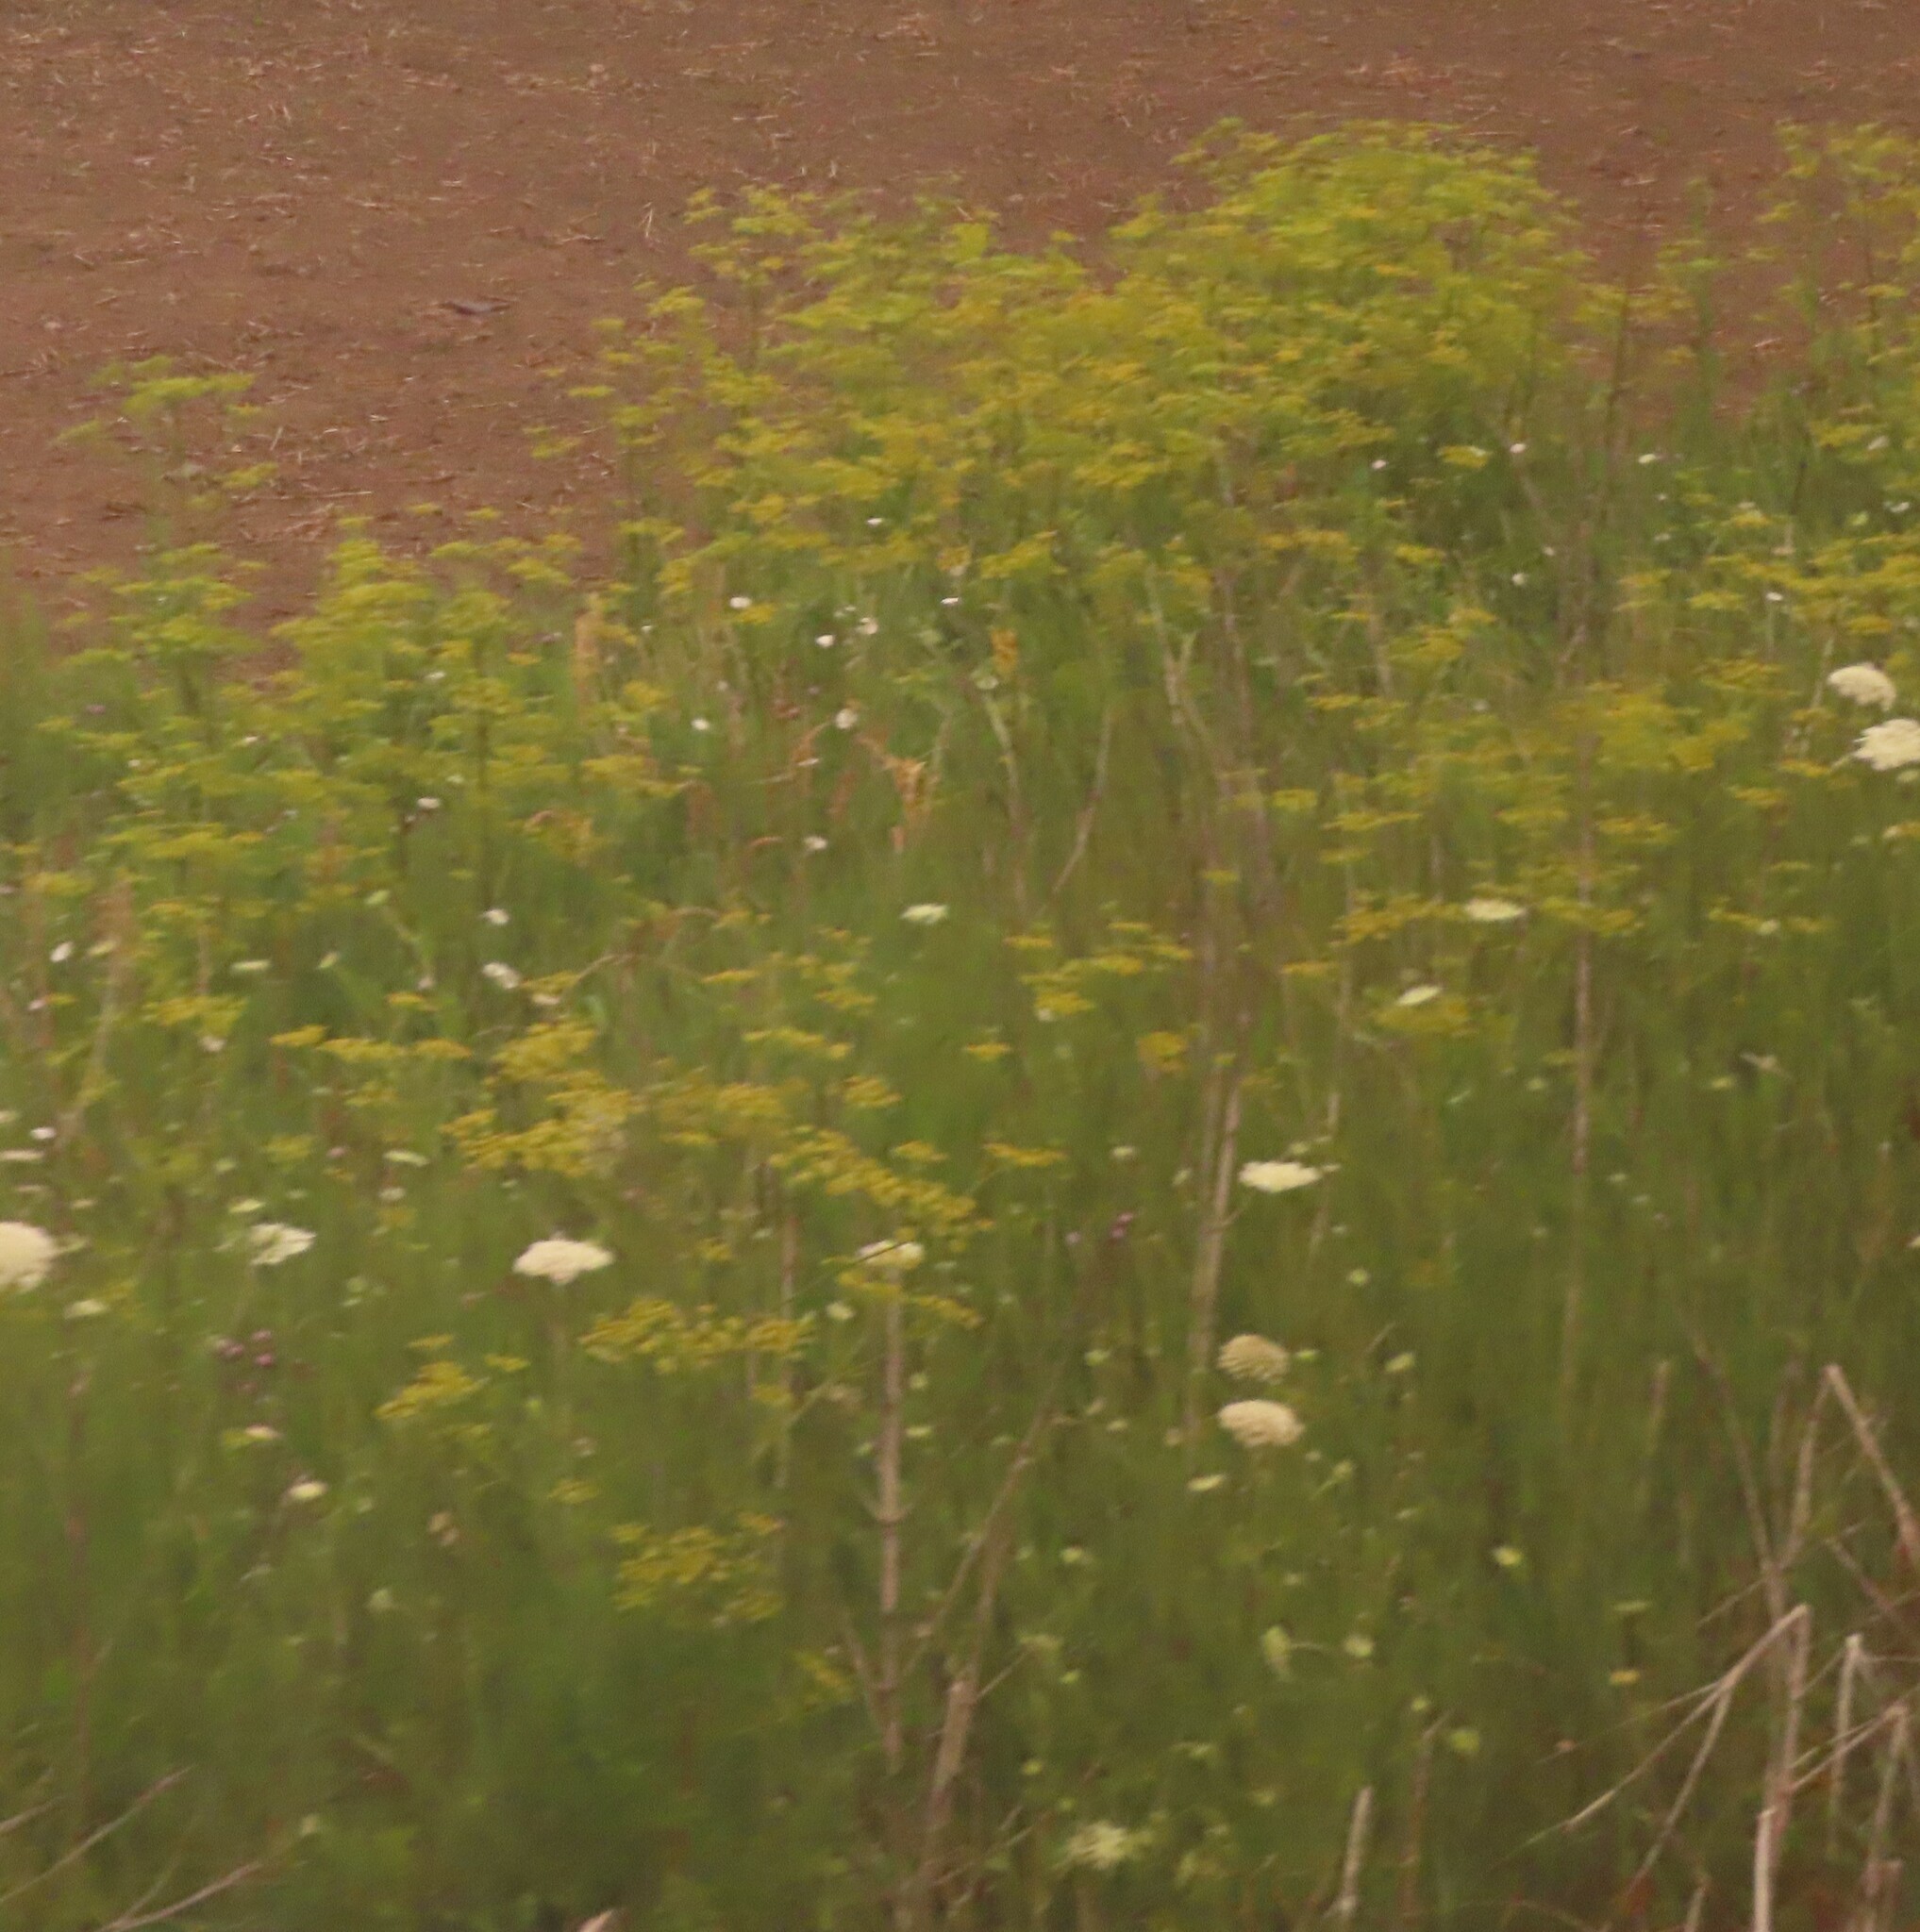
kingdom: Plantae
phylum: Tracheophyta
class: Magnoliopsida
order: Apiales
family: Apiaceae
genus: Pastinaca
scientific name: Pastinaca sativa
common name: Wild parsnip
